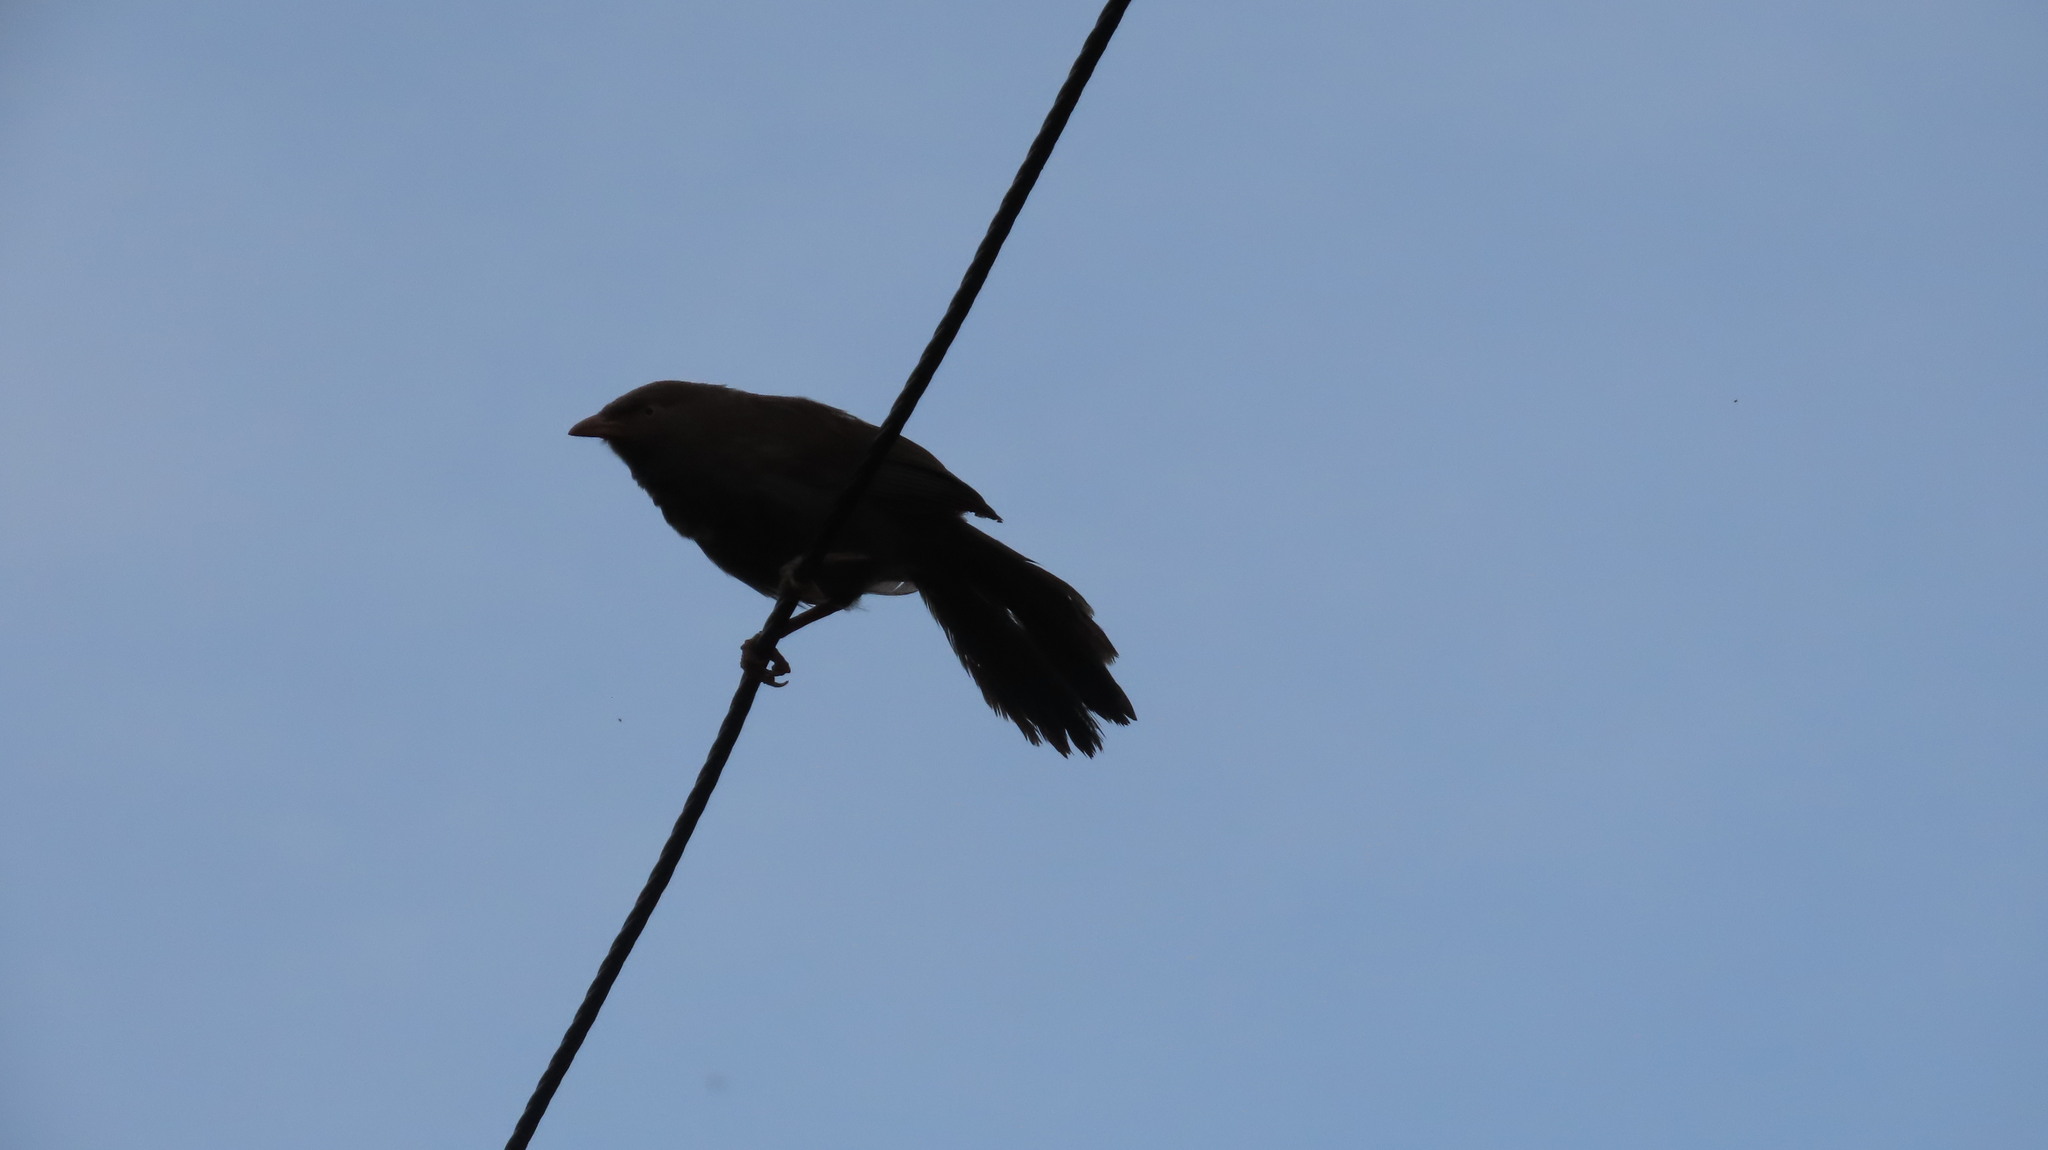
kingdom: Animalia
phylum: Chordata
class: Aves
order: Passeriformes
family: Leiothrichidae
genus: Turdoides
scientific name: Turdoides striata
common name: Jungle babbler
